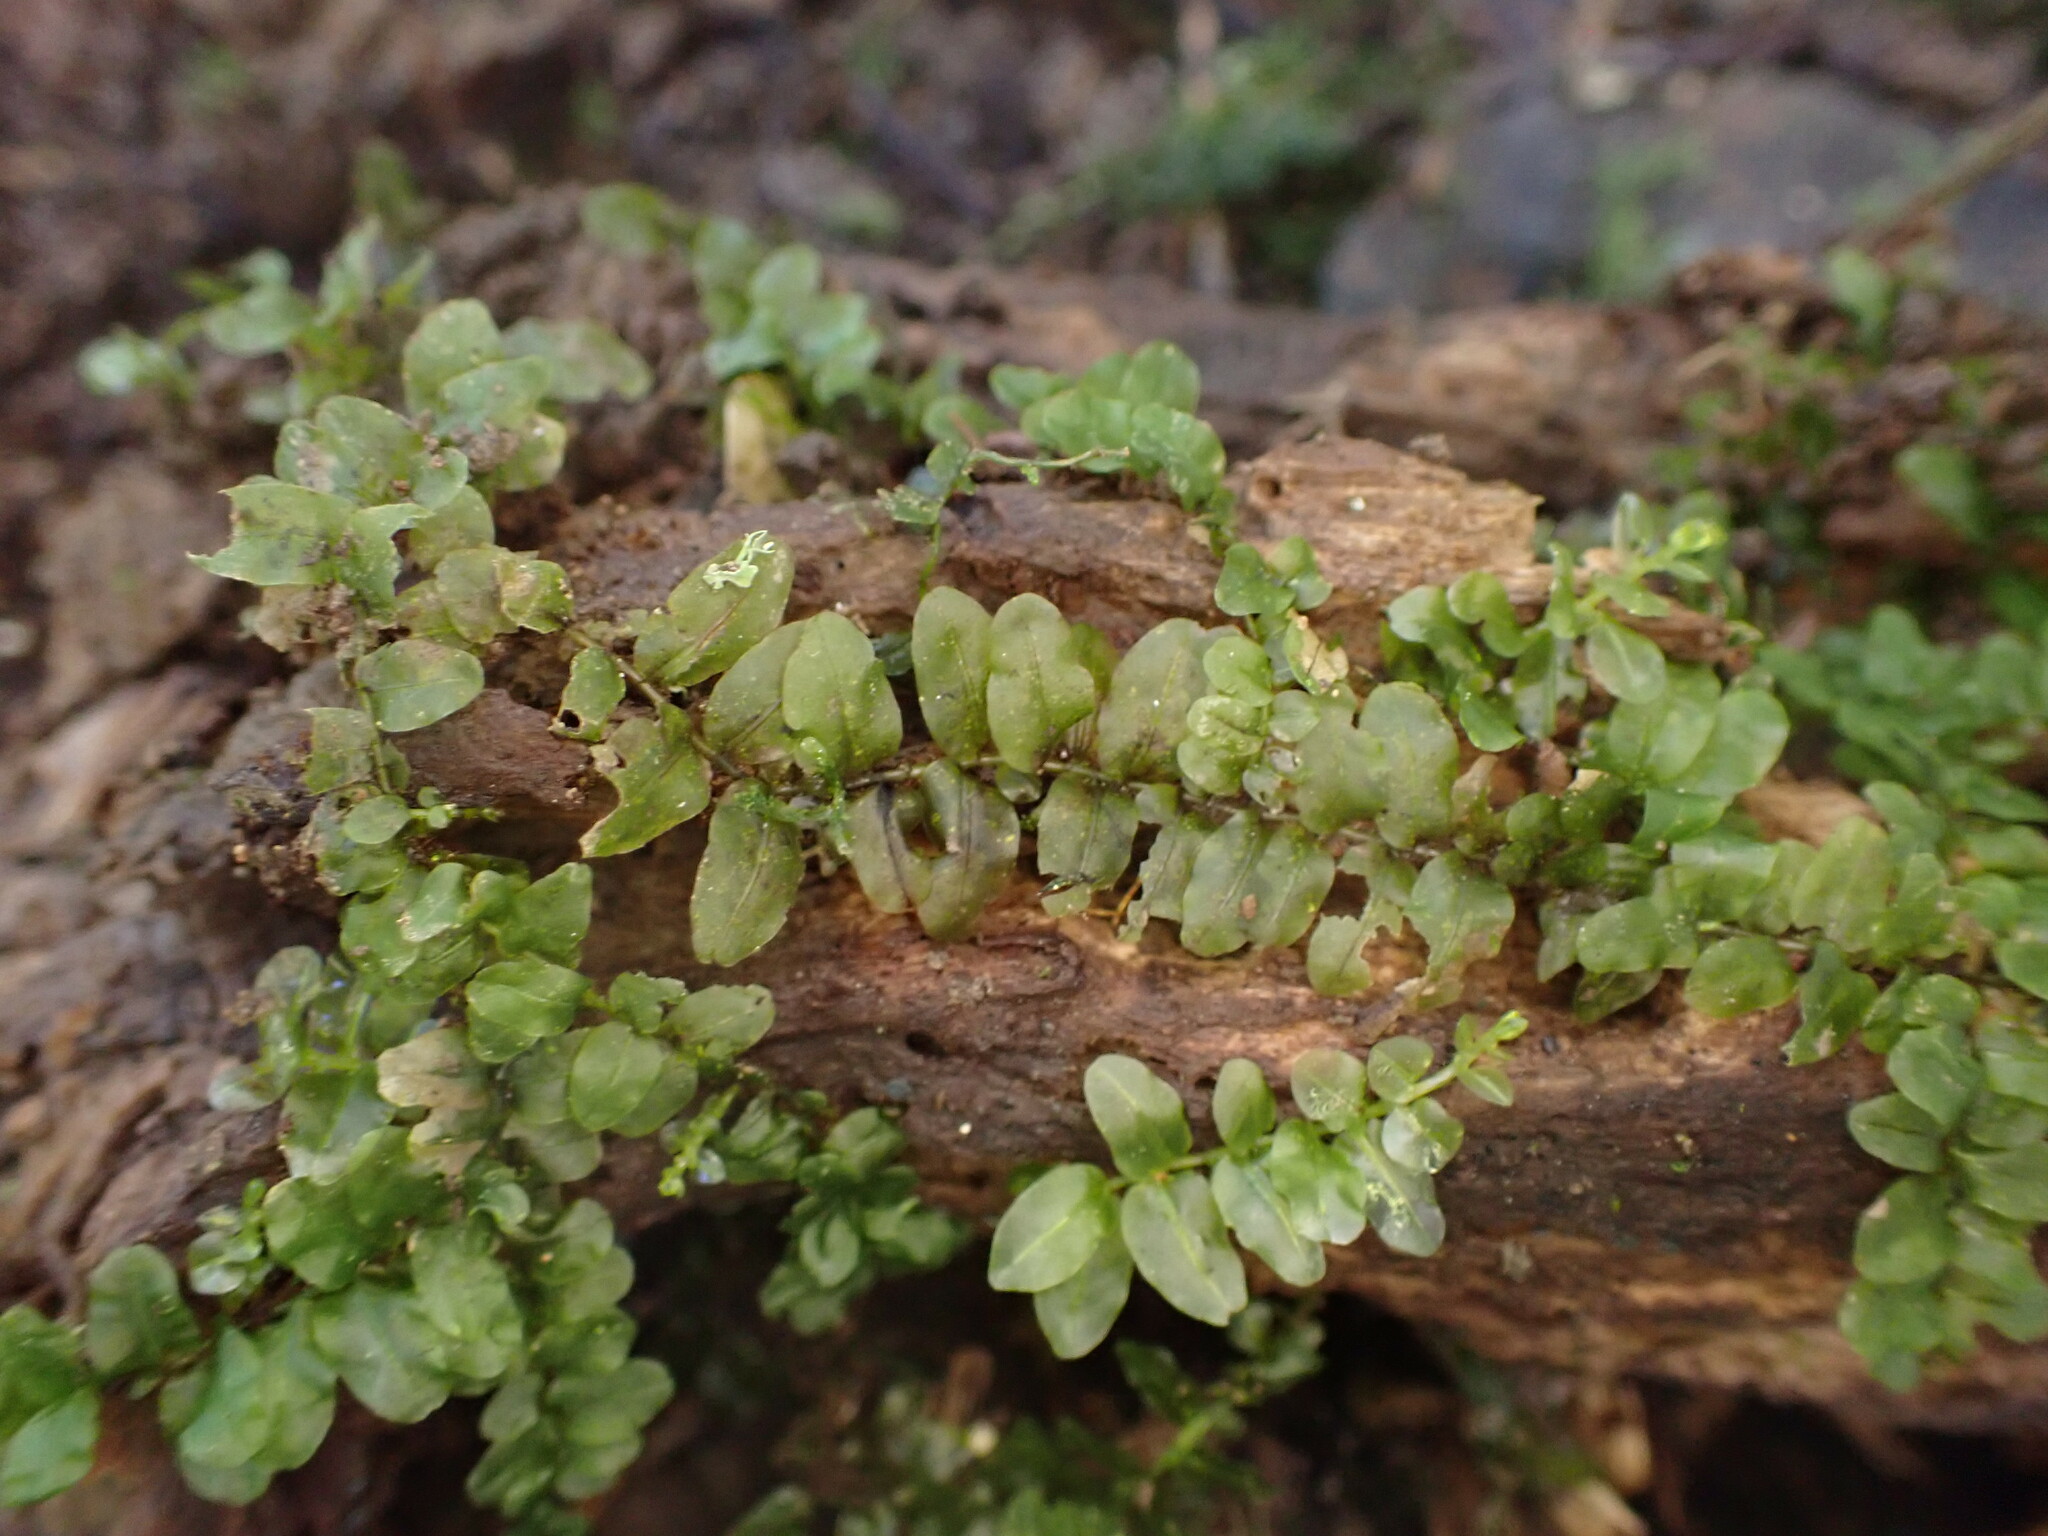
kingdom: Plantae
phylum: Bryophyta
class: Bryopsida
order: Bryales
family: Mniaceae
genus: Plagiomnium
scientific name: Plagiomnium novae-zealandiae
